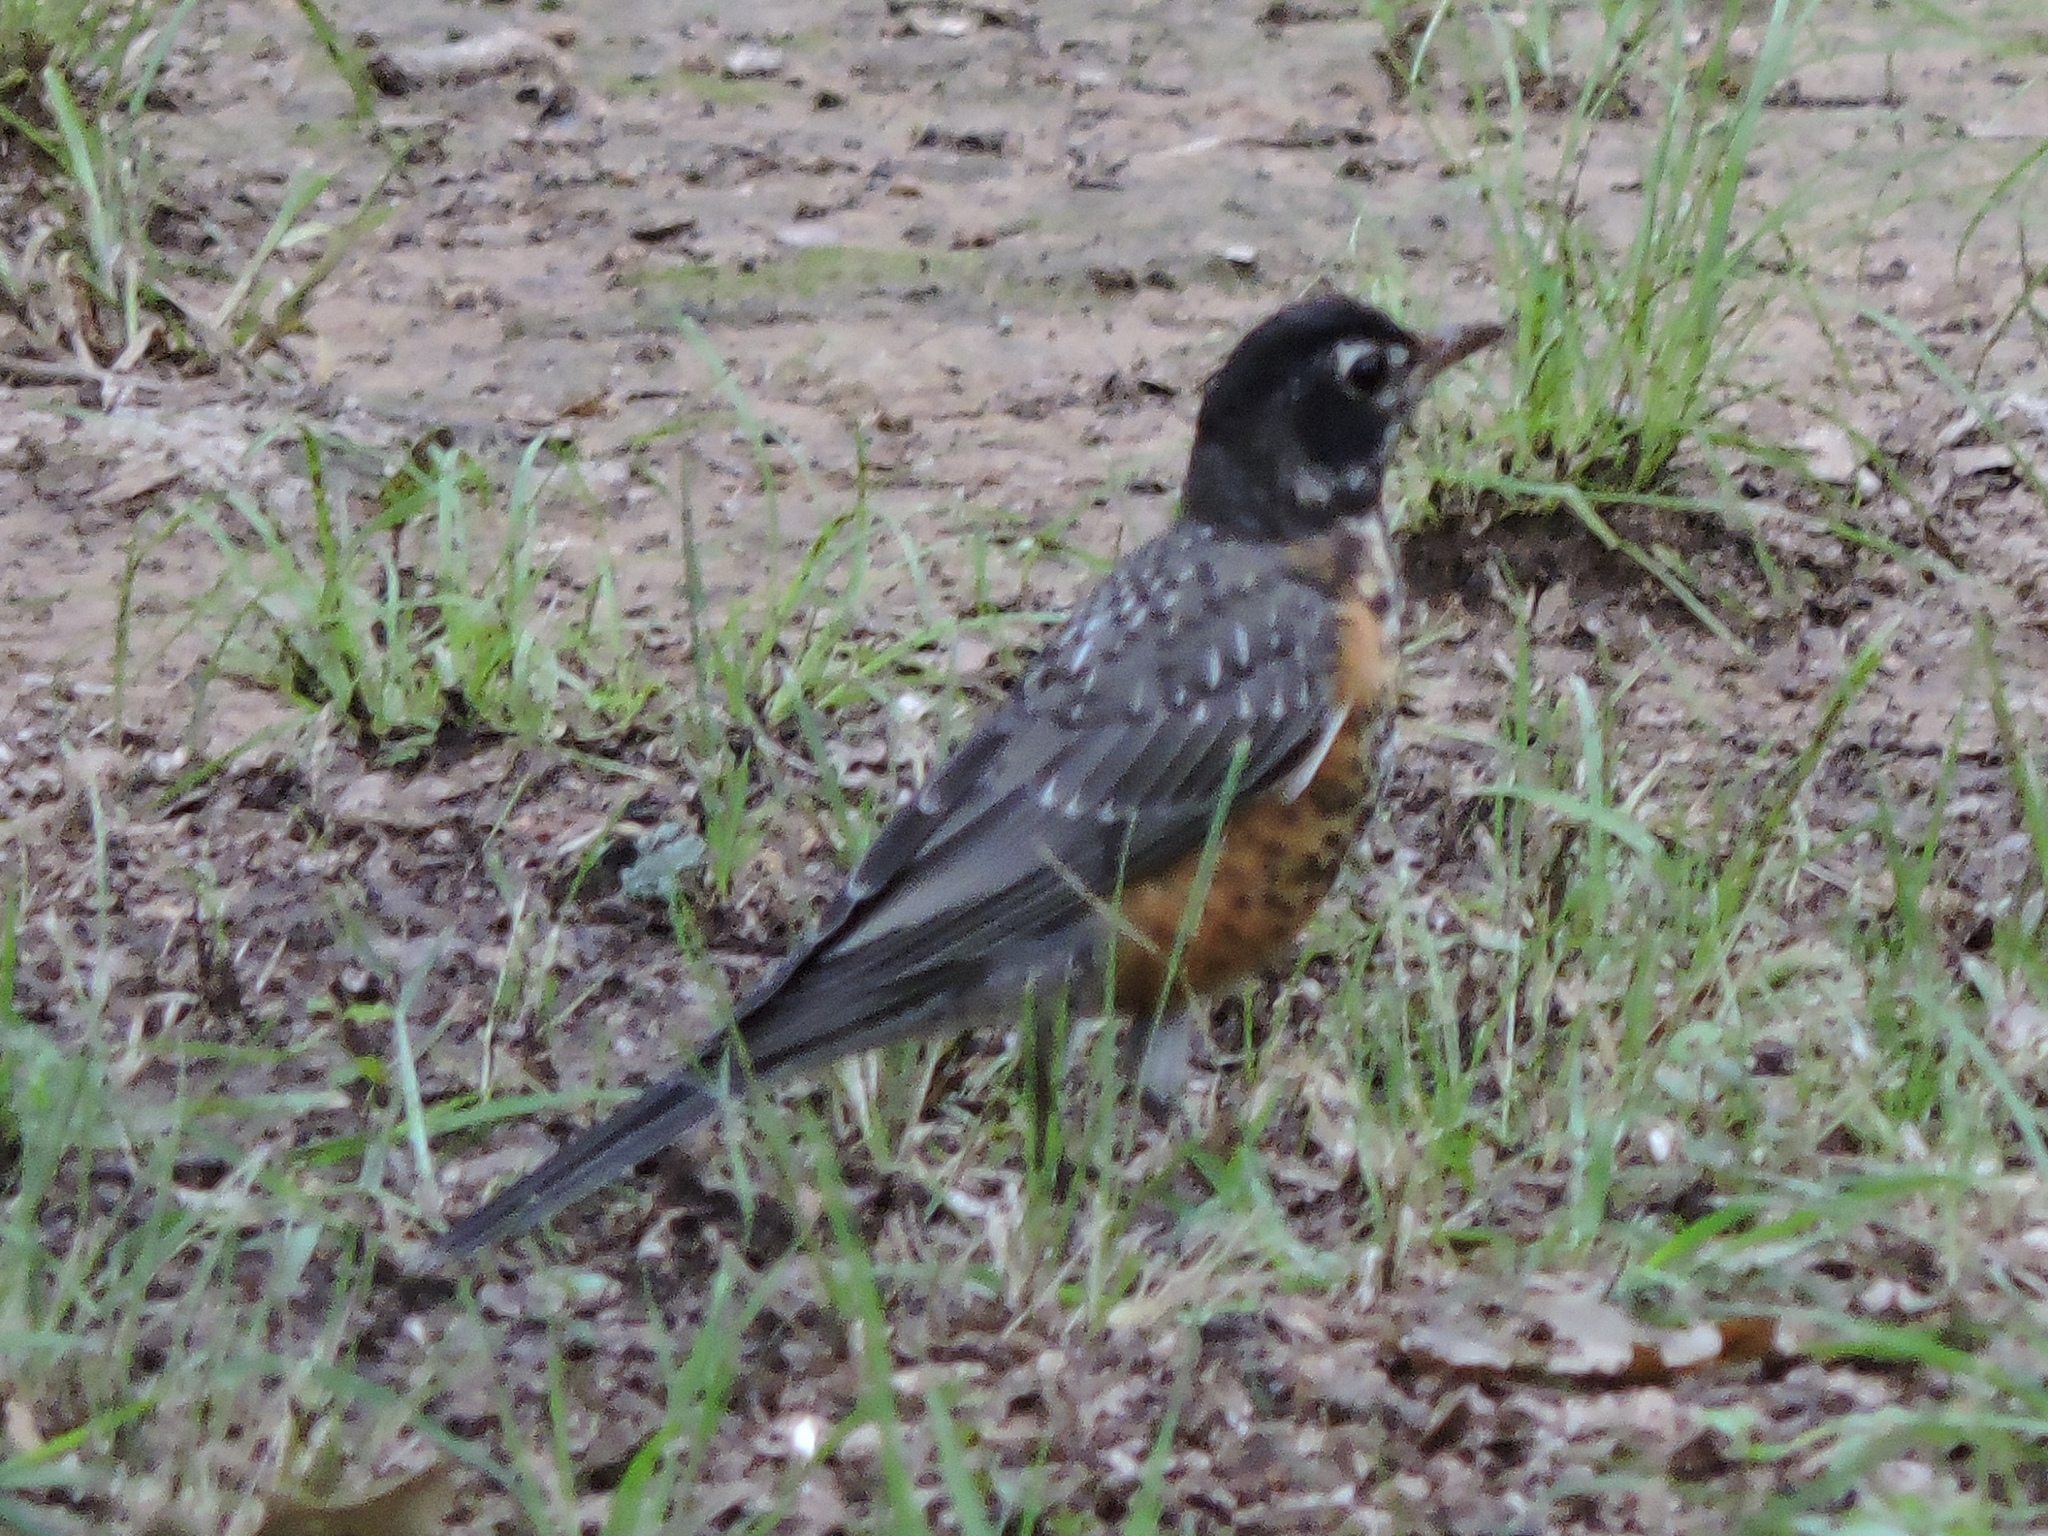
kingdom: Animalia
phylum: Chordata
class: Aves
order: Passeriformes
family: Turdidae
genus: Turdus
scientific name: Turdus migratorius
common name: American robin
